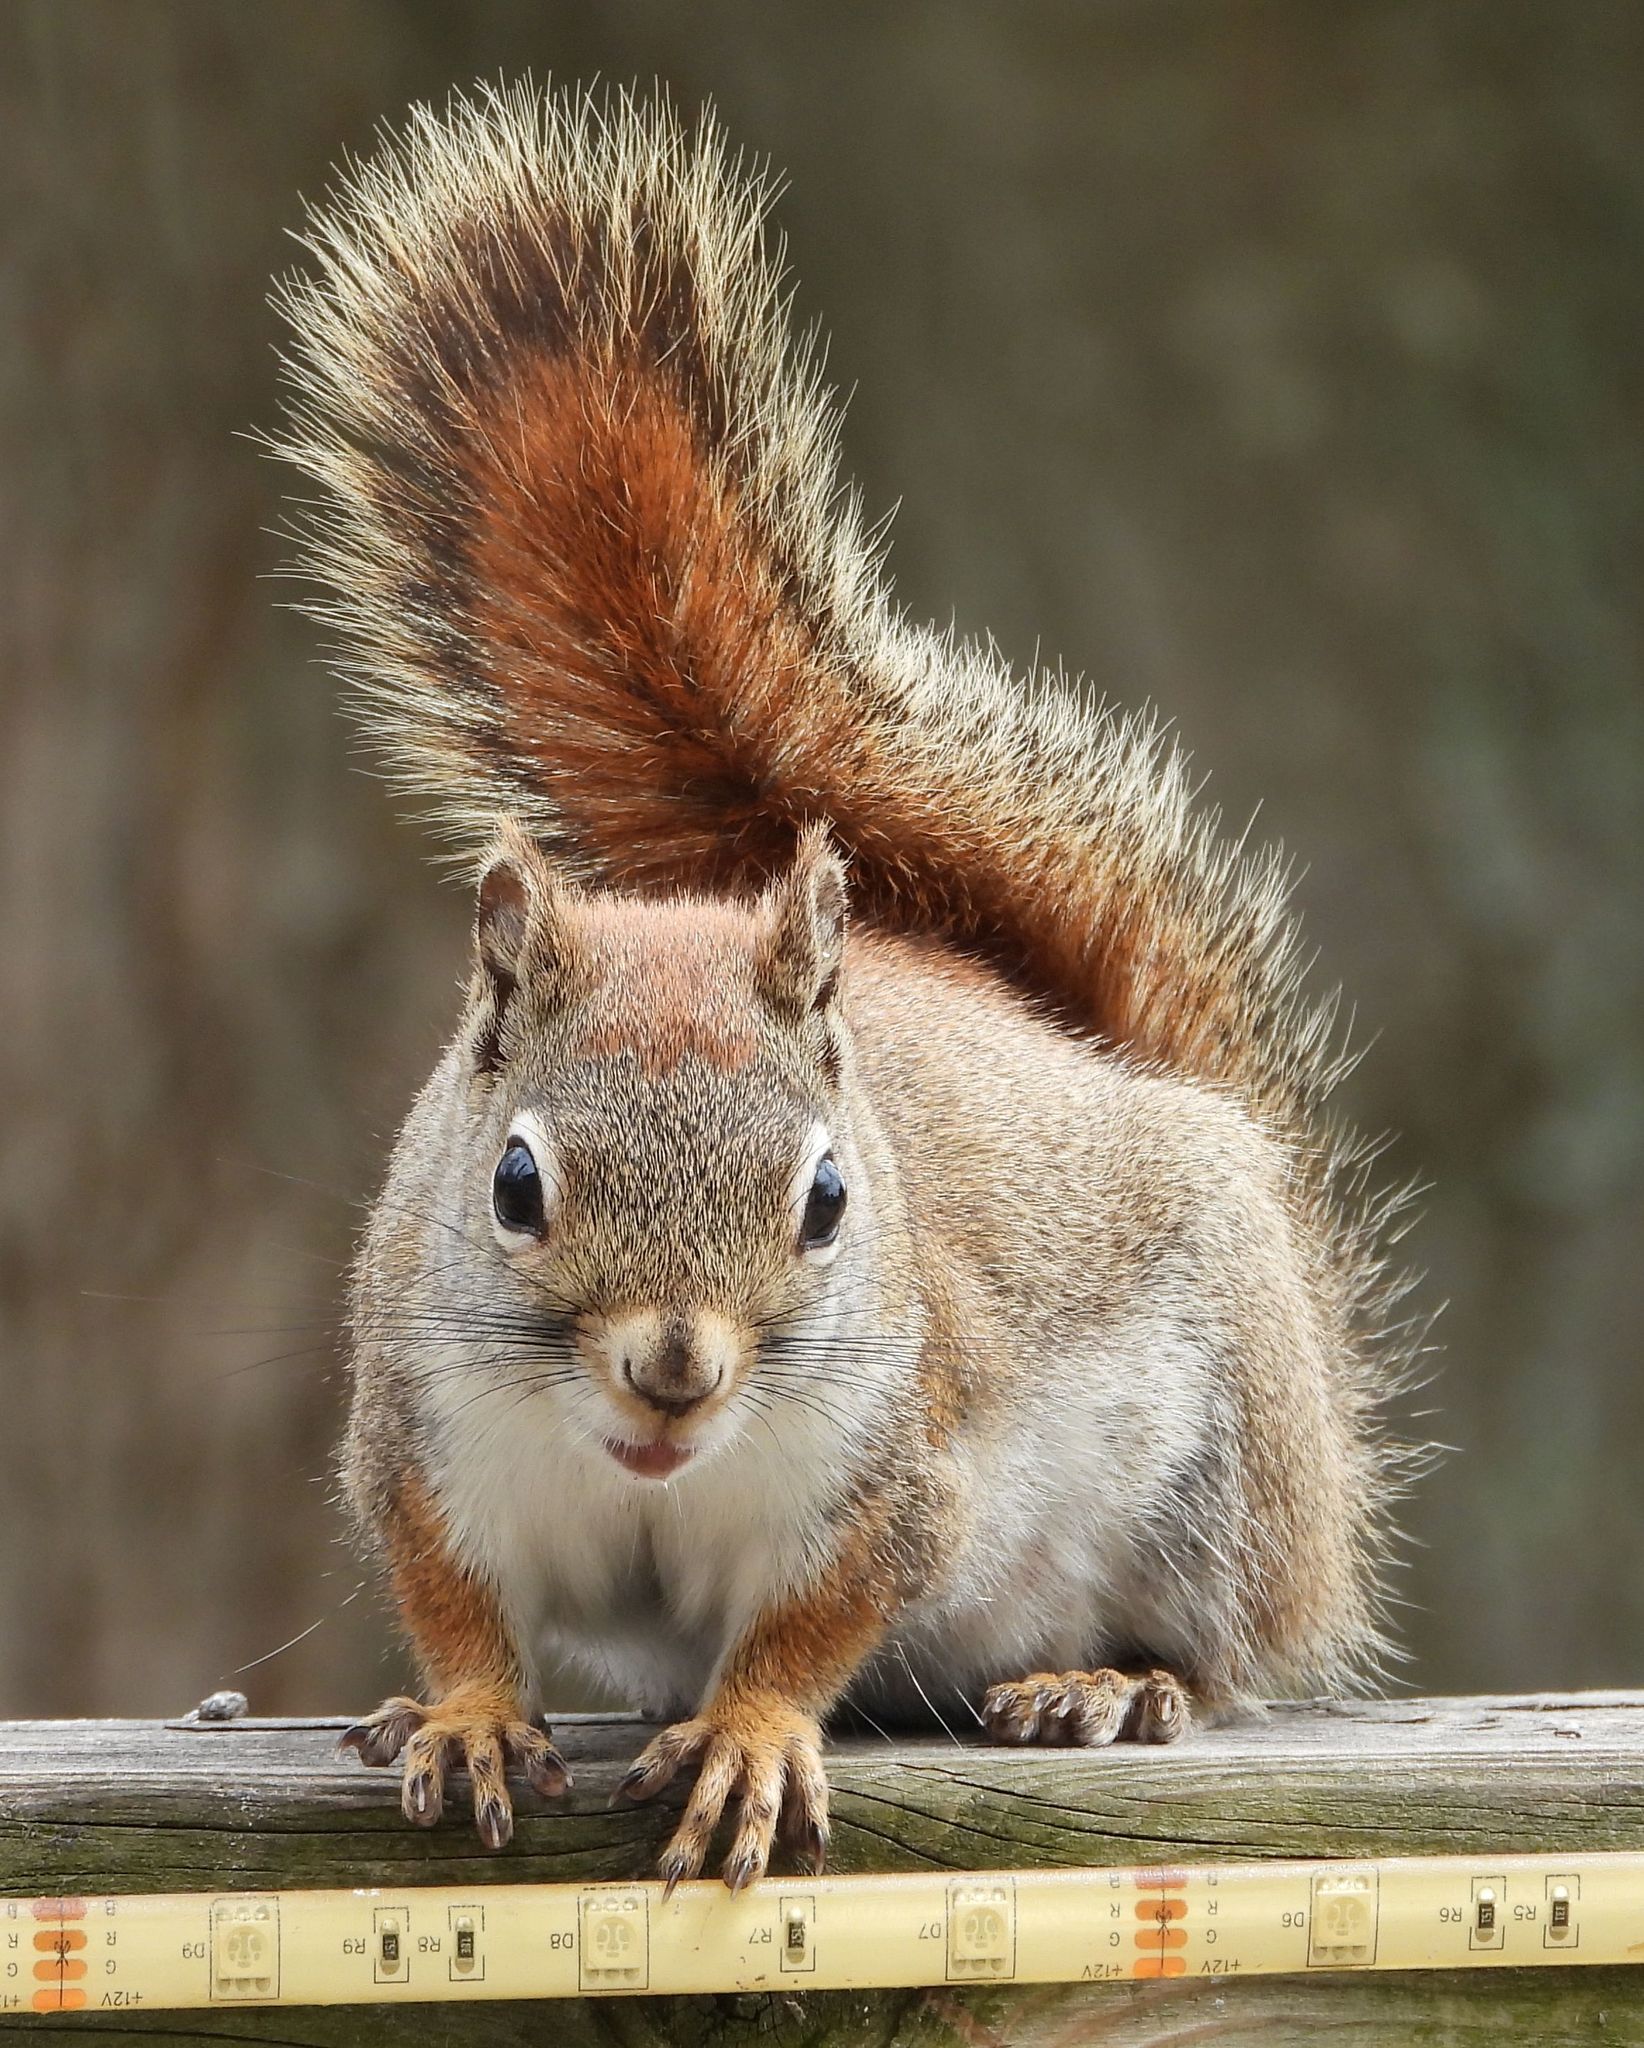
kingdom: Animalia
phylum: Chordata
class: Mammalia
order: Rodentia
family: Sciuridae
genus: Tamiasciurus
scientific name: Tamiasciurus hudsonicus
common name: Red squirrel
